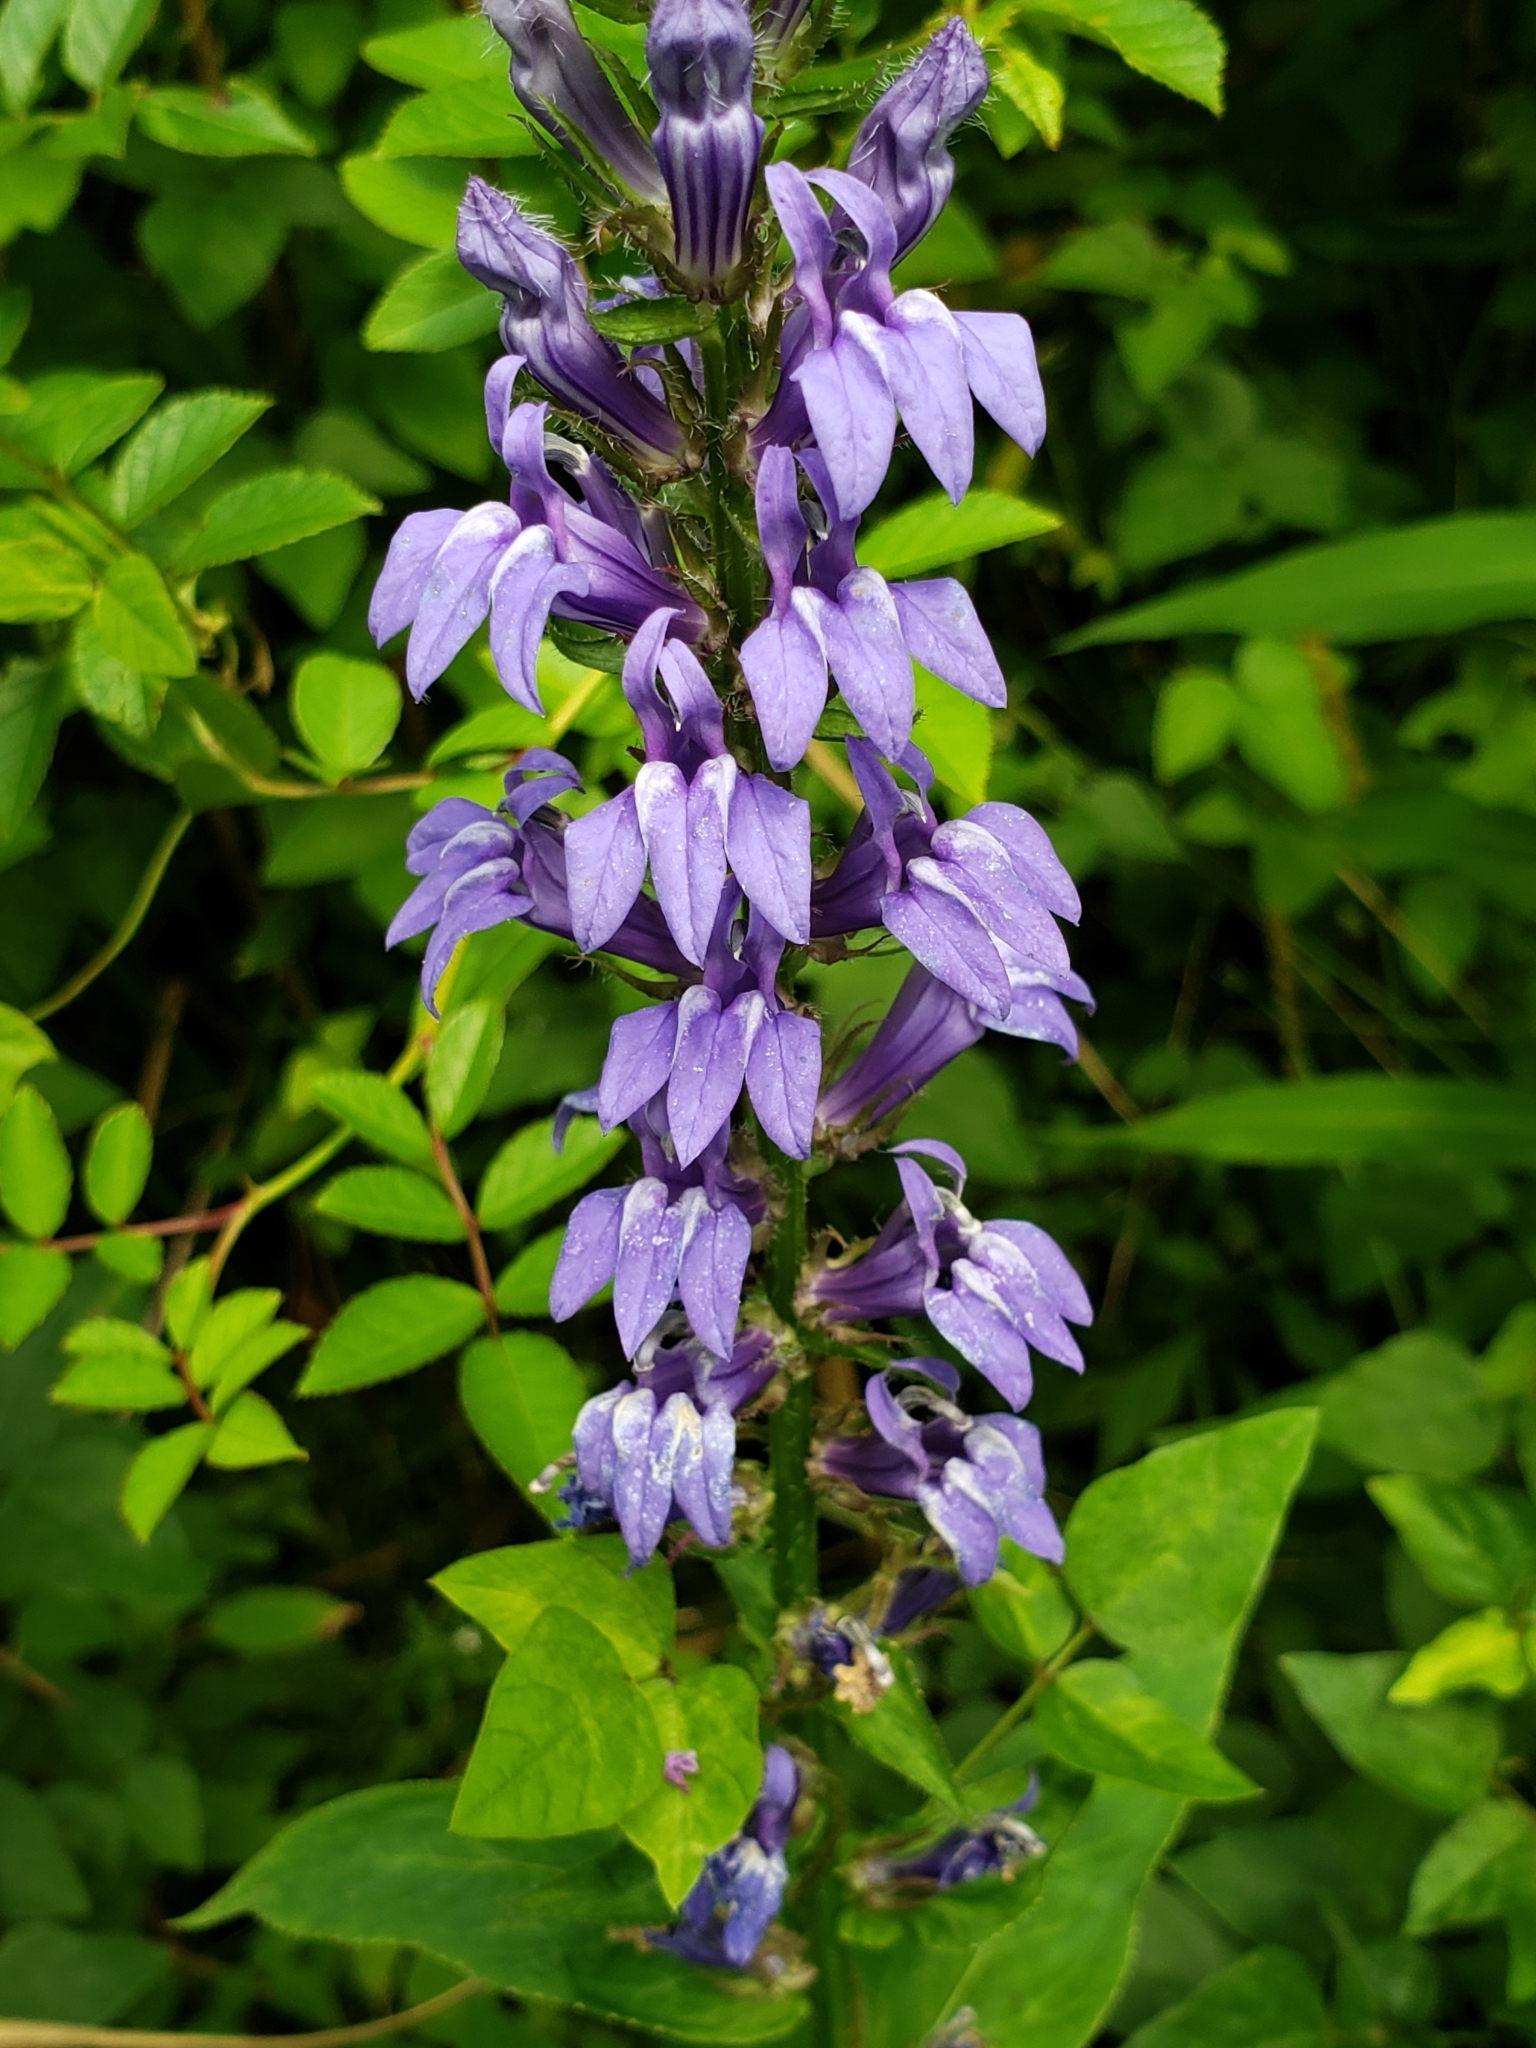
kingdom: Plantae
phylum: Tracheophyta
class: Magnoliopsida
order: Asterales
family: Campanulaceae
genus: Lobelia
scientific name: Lobelia siphilitica
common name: Great lobelia
